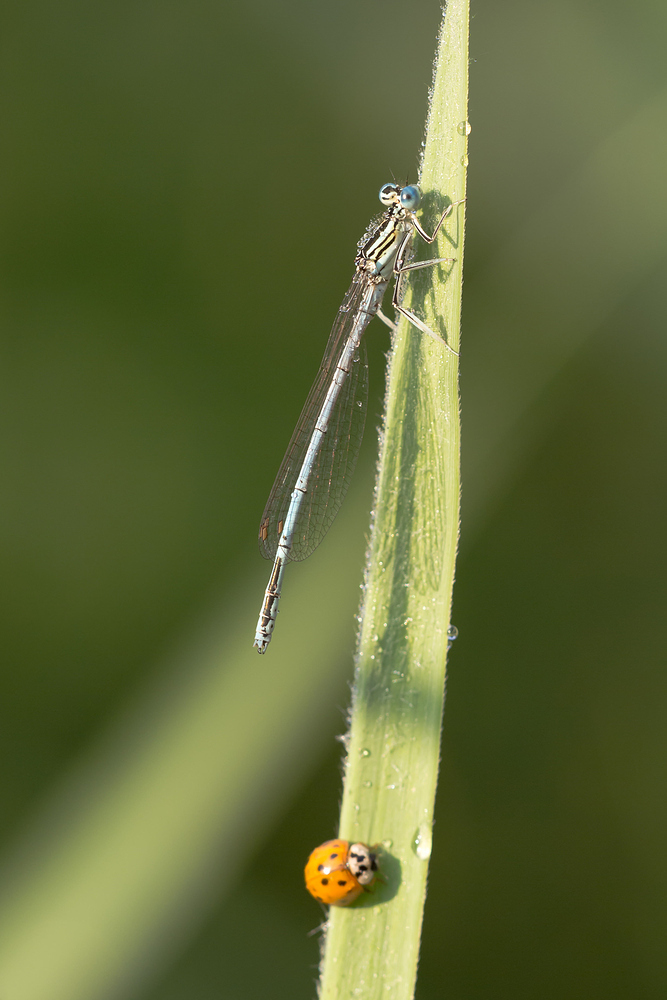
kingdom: Animalia
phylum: Arthropoda
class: Insecta
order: Odonata
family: Platycnemididae
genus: Platycnemis
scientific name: Platycnemis pennipes
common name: White-legged damselfly
